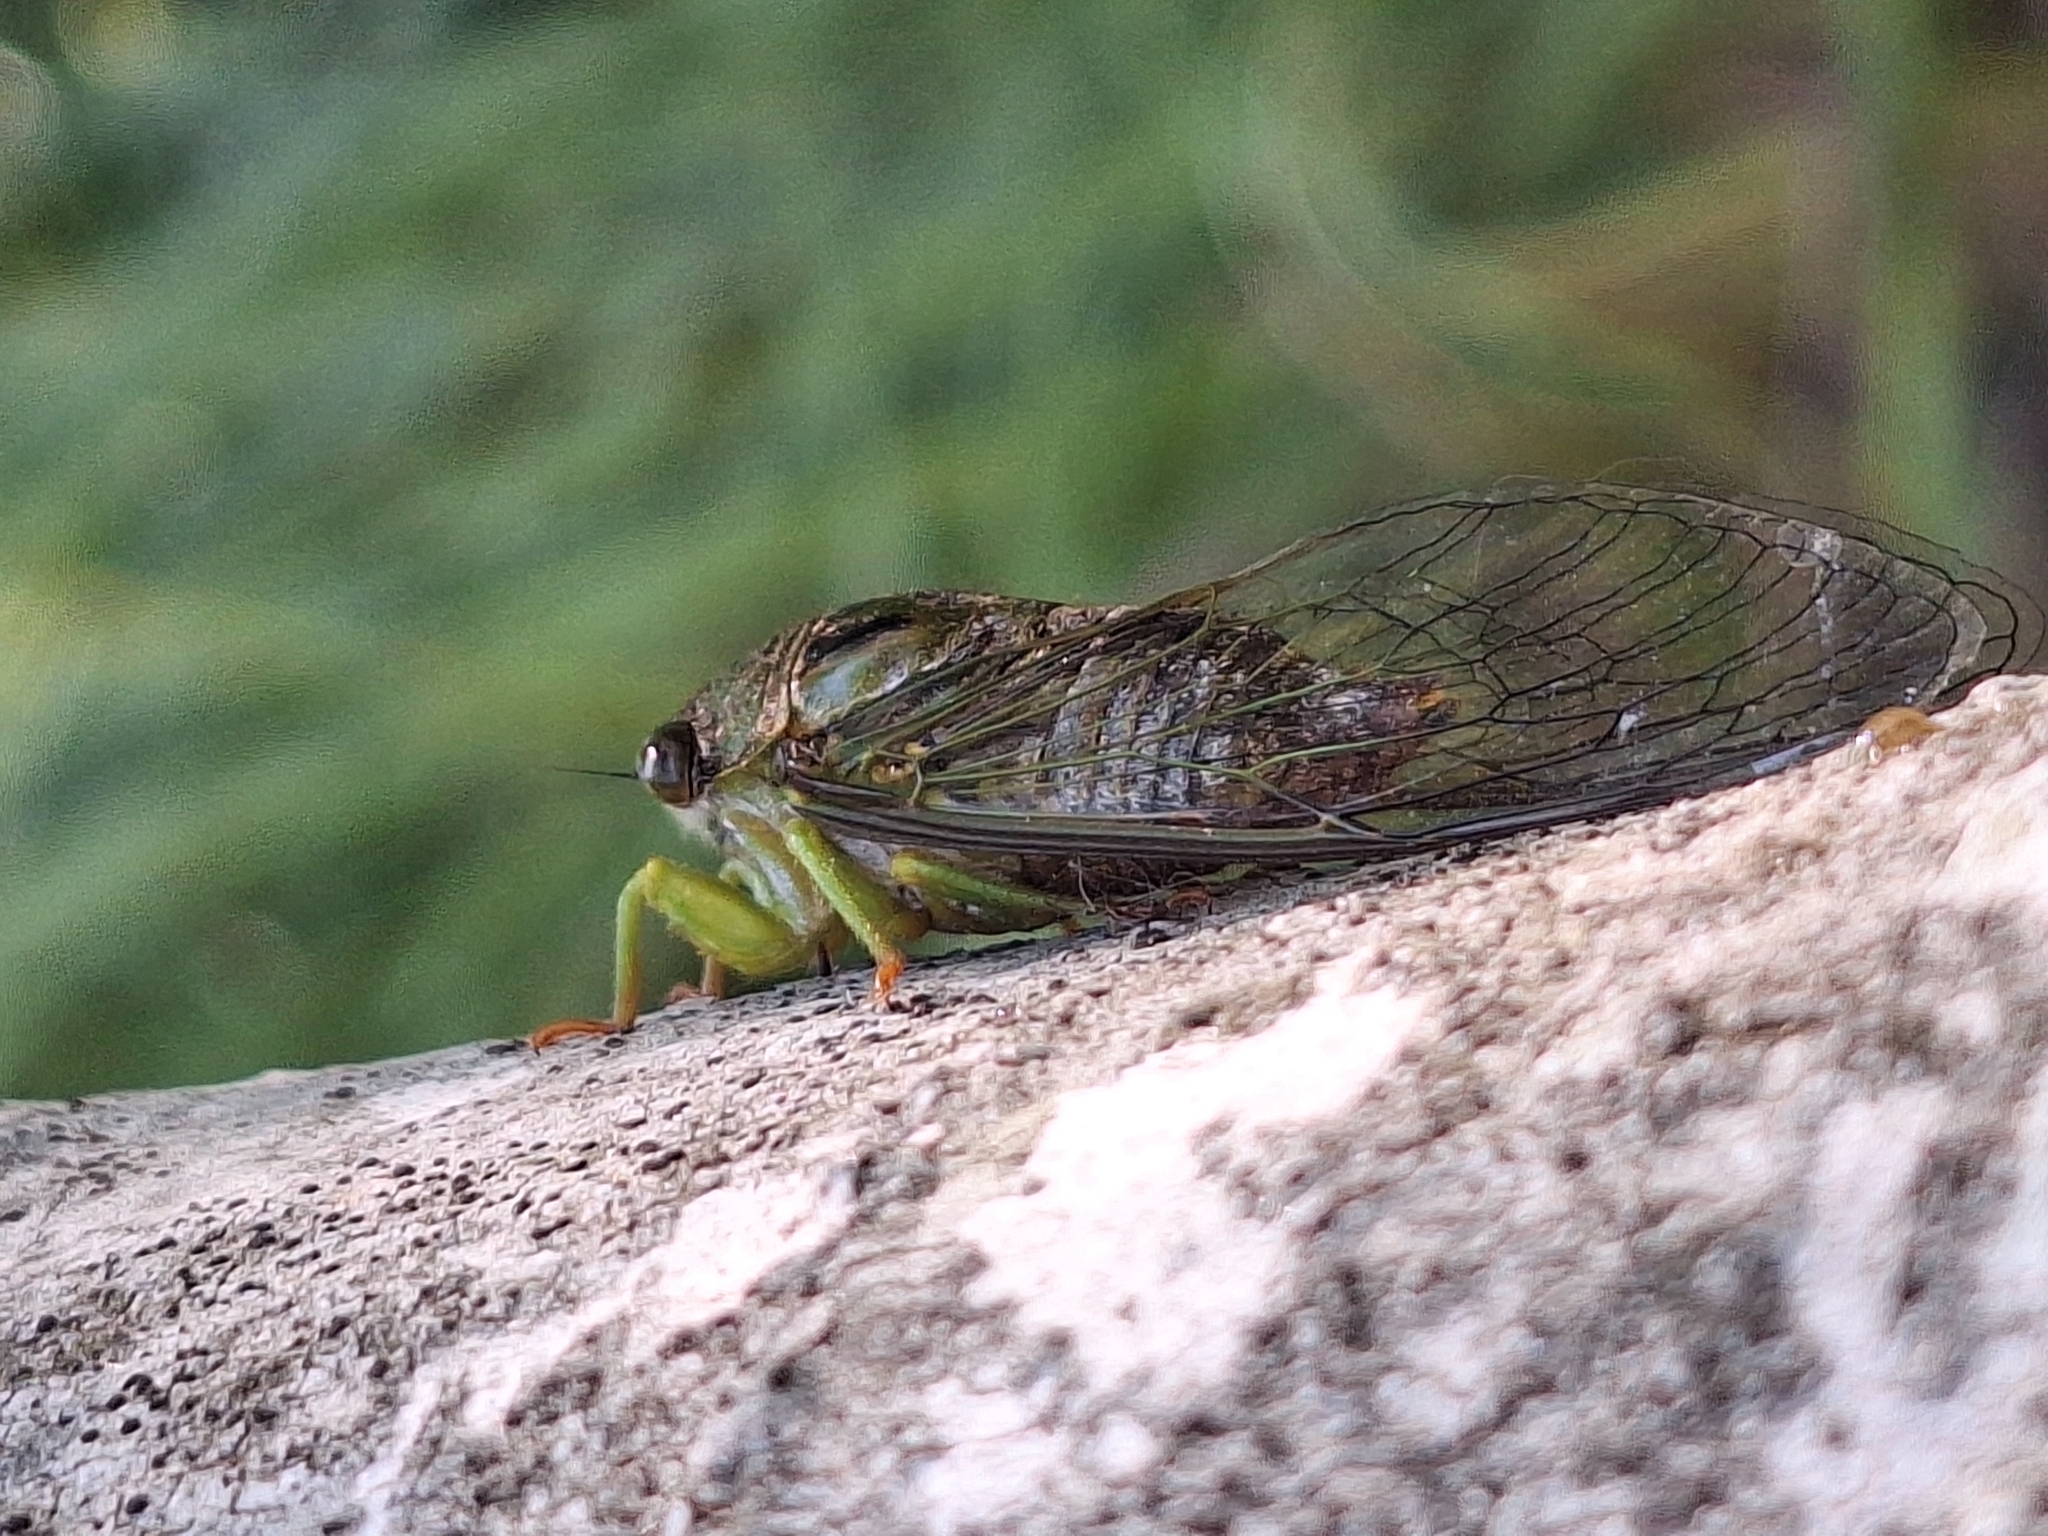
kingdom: Animalia
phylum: Arthropoda
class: Insecta
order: Hemiptera
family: Cicadidae
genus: Acanthoventris
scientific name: Acanthoventris drewseni
